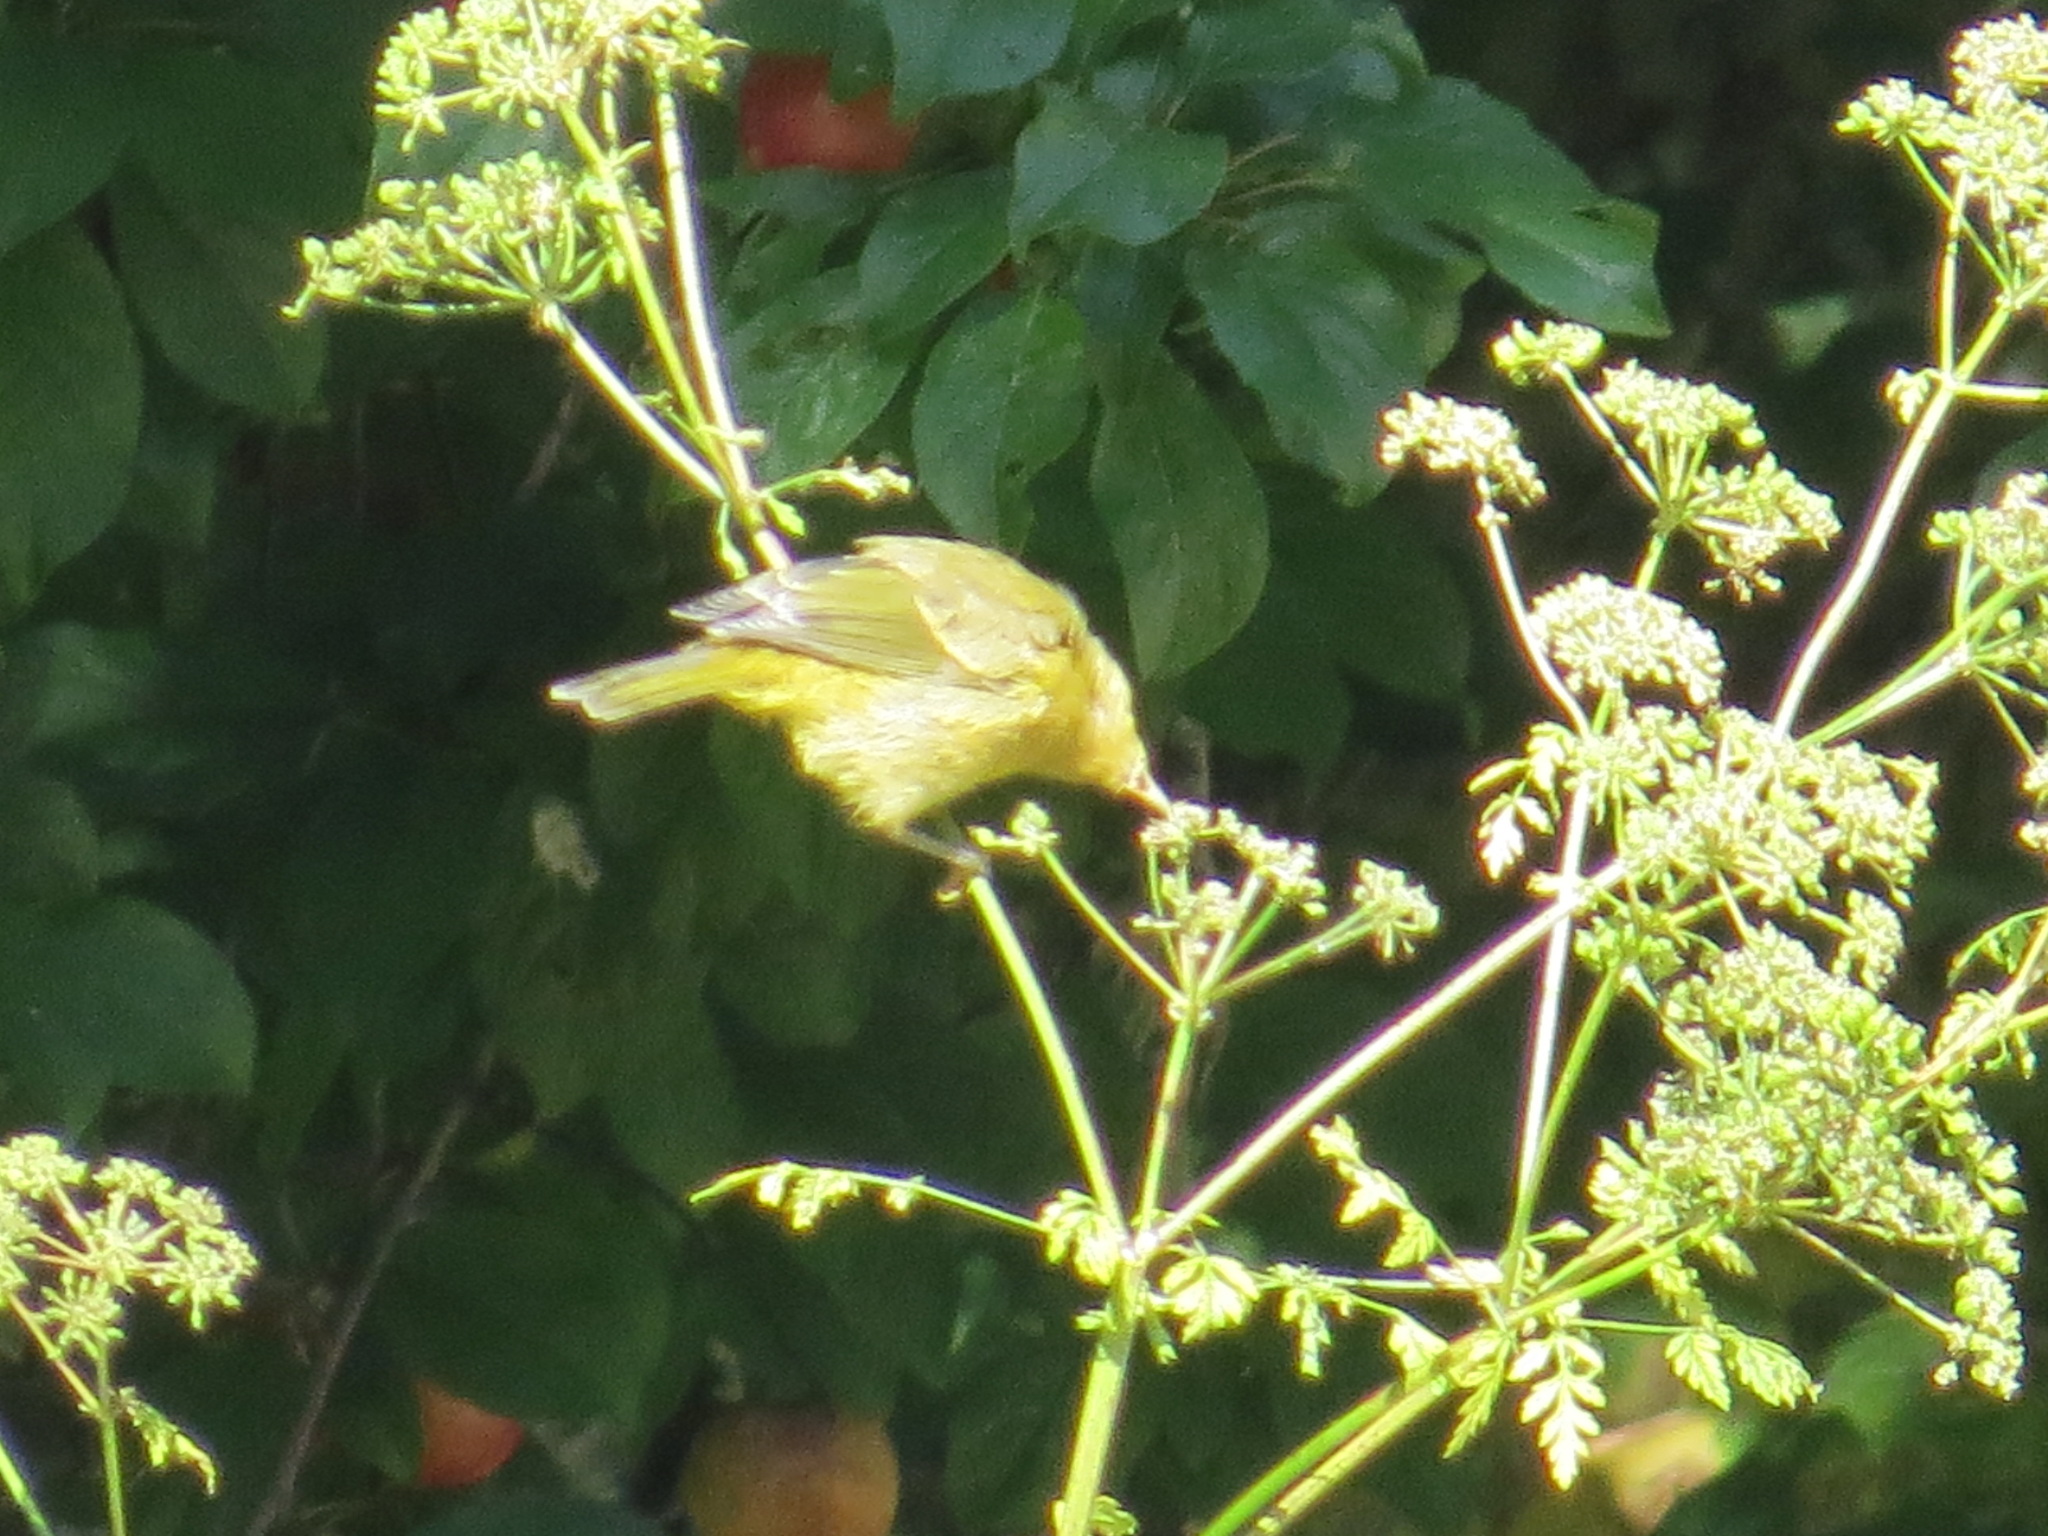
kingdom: Animalia
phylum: Chordata
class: Aves
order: Passeriformes
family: Parulidae
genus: Leiothlypis
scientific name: Leiothlypis celata
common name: Orange-crowned warbler
